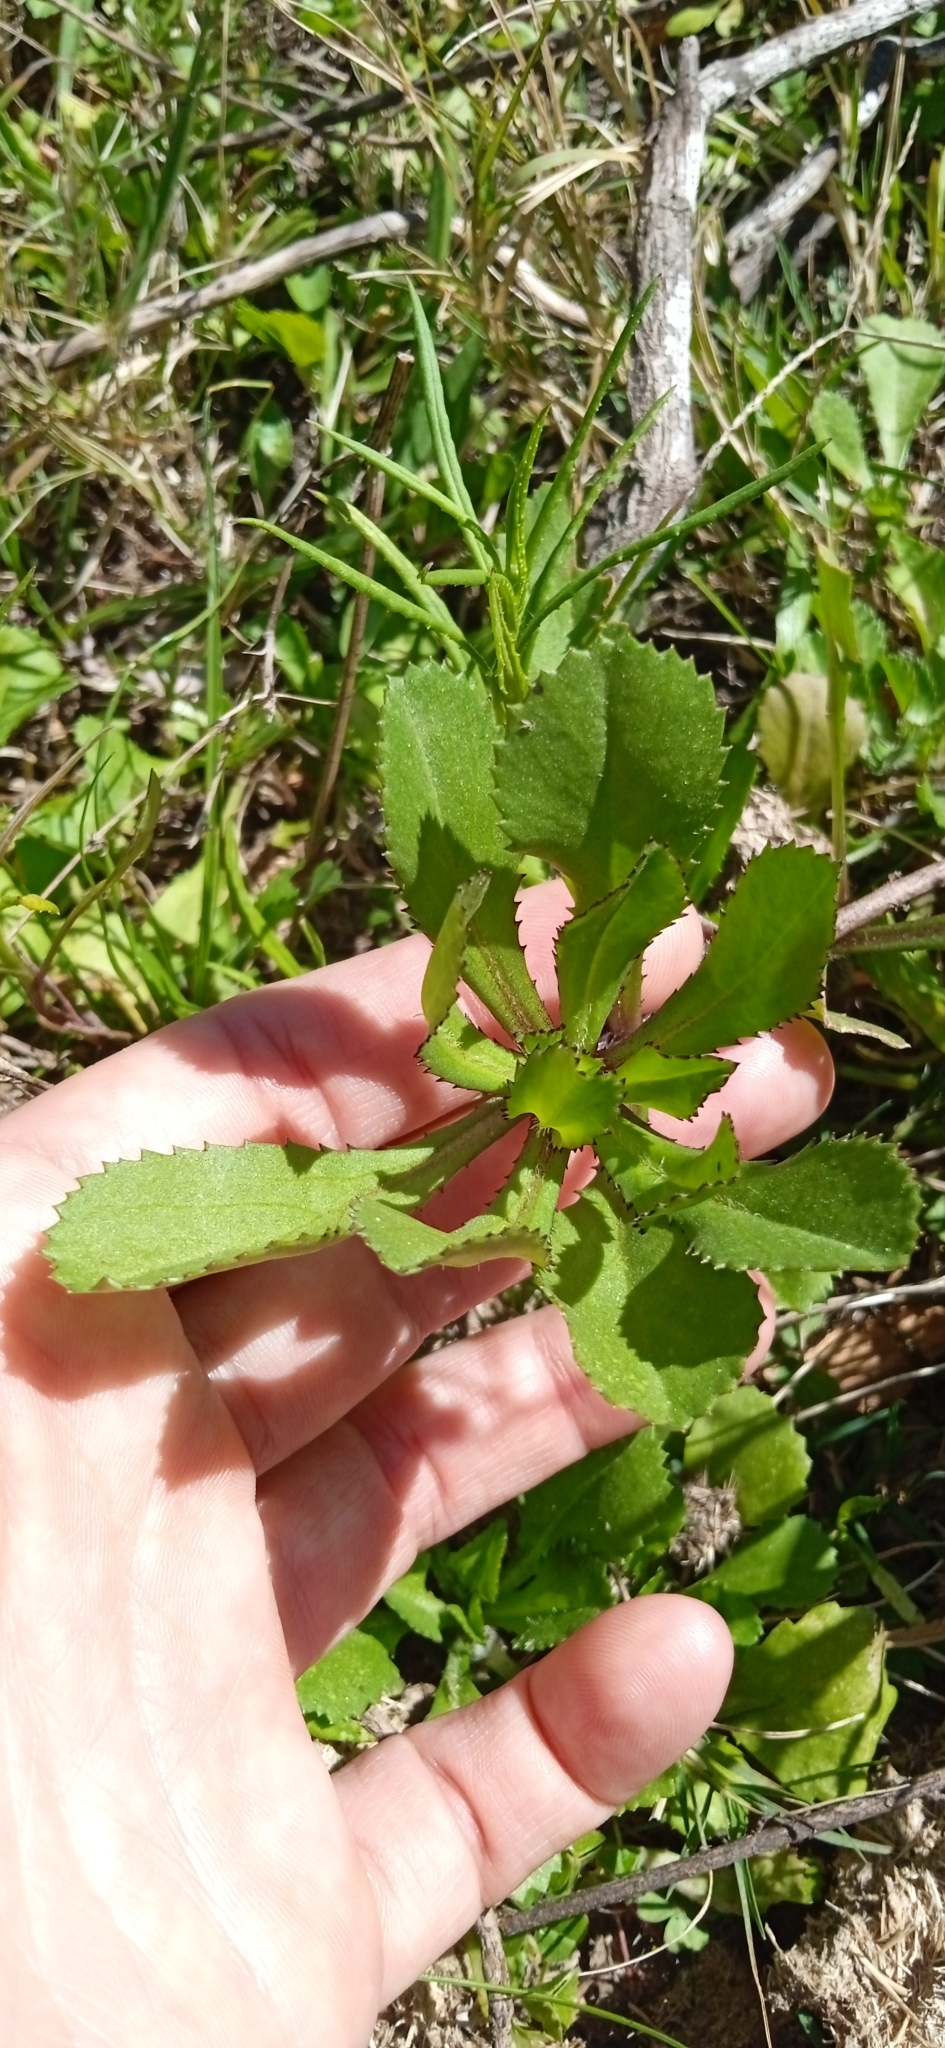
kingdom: Plantae
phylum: Tracheophyta
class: Magnoliopsida
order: Asterales
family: Asteraceae
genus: Coleostephus
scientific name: Coleostephus myconis
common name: Mediterranean marigold
